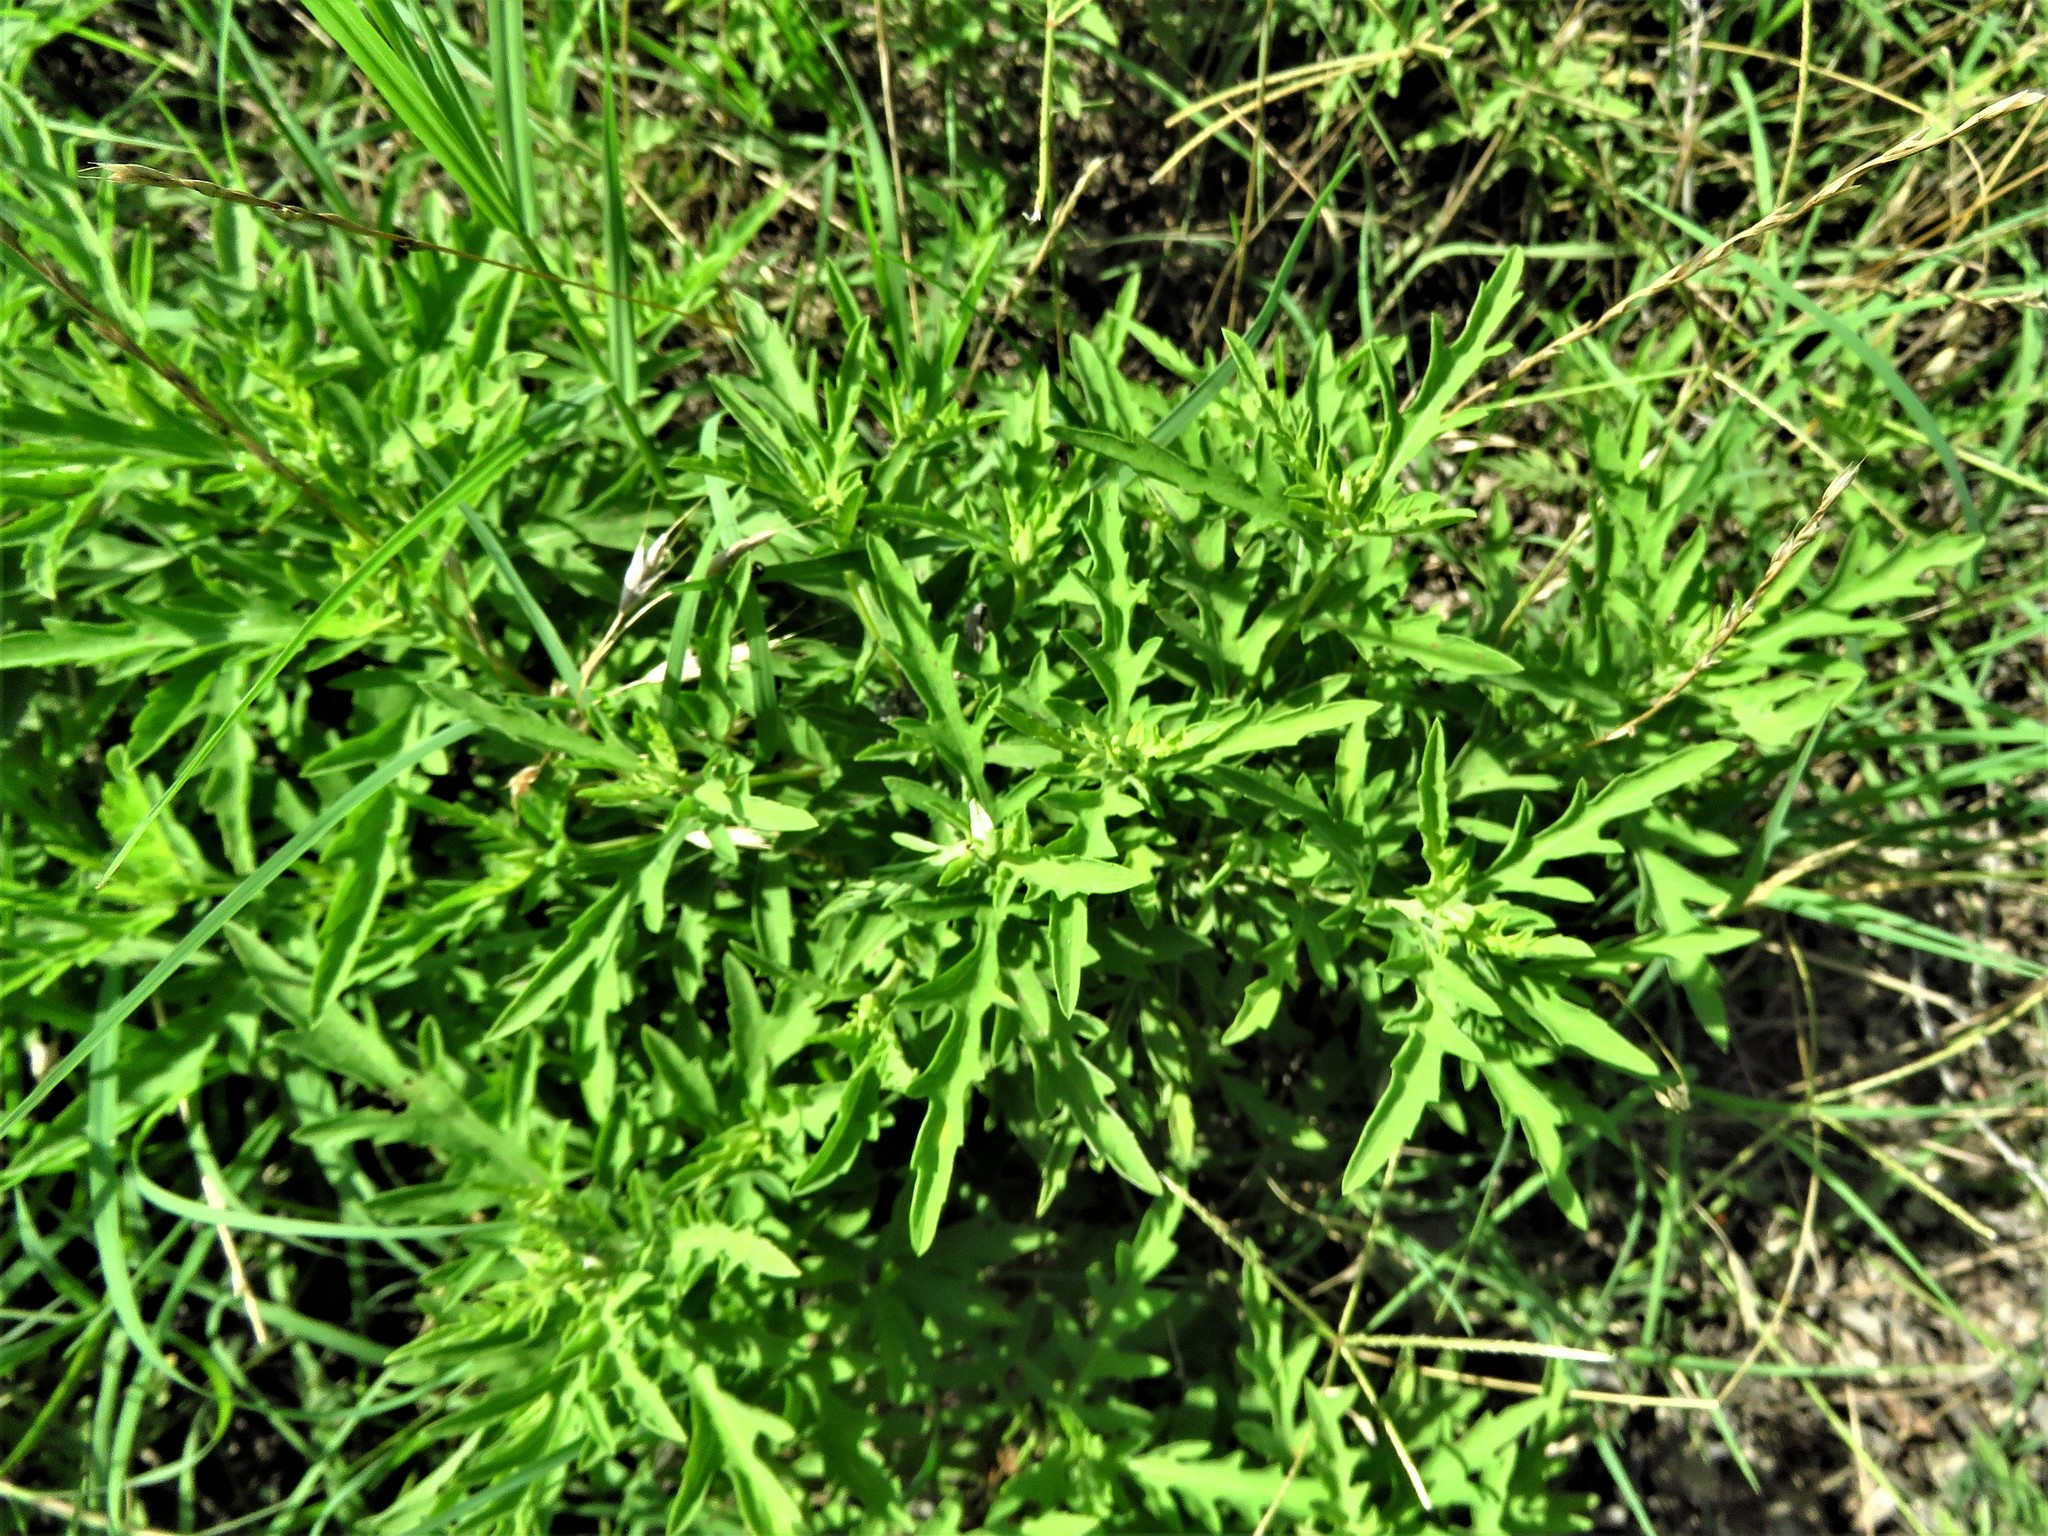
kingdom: Plantae
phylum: Tracheophyta
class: Magnoliopsida
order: Asterales
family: Asteraceae
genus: Ambrosia
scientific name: Ambrosia psilostachya
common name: Perennial ragweed
